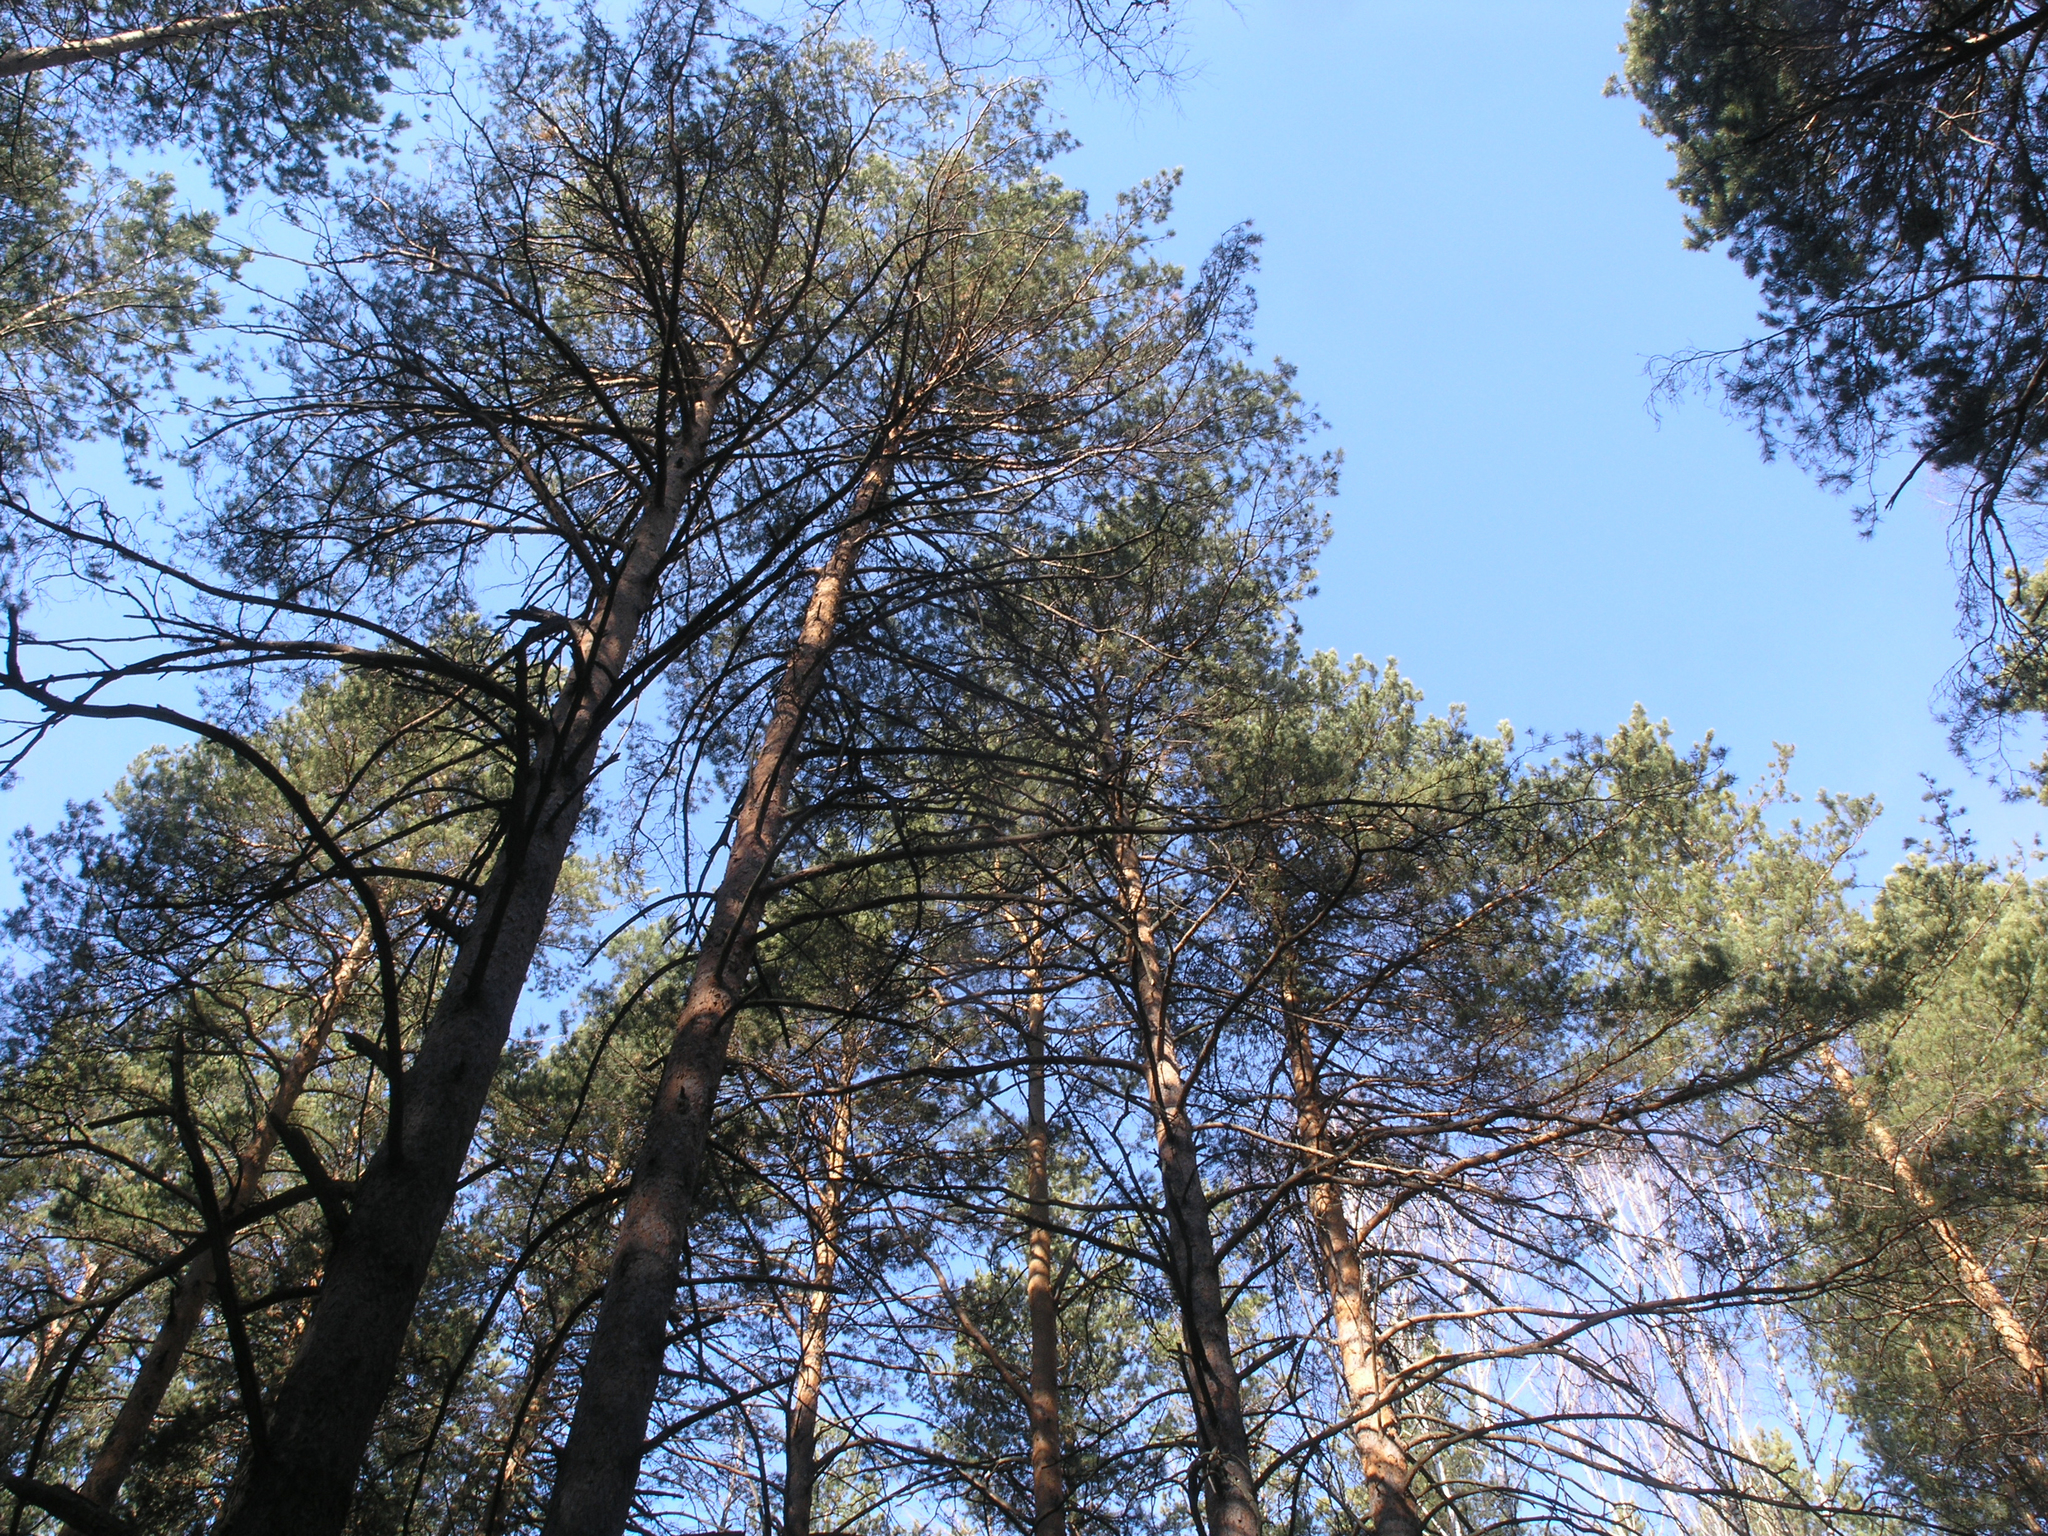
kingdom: Plantae
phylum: Tracheophyta
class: Pinopsida
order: Pinales
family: Pinaceae
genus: Pinus
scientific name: Pinus sylvestris
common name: Scots pine
